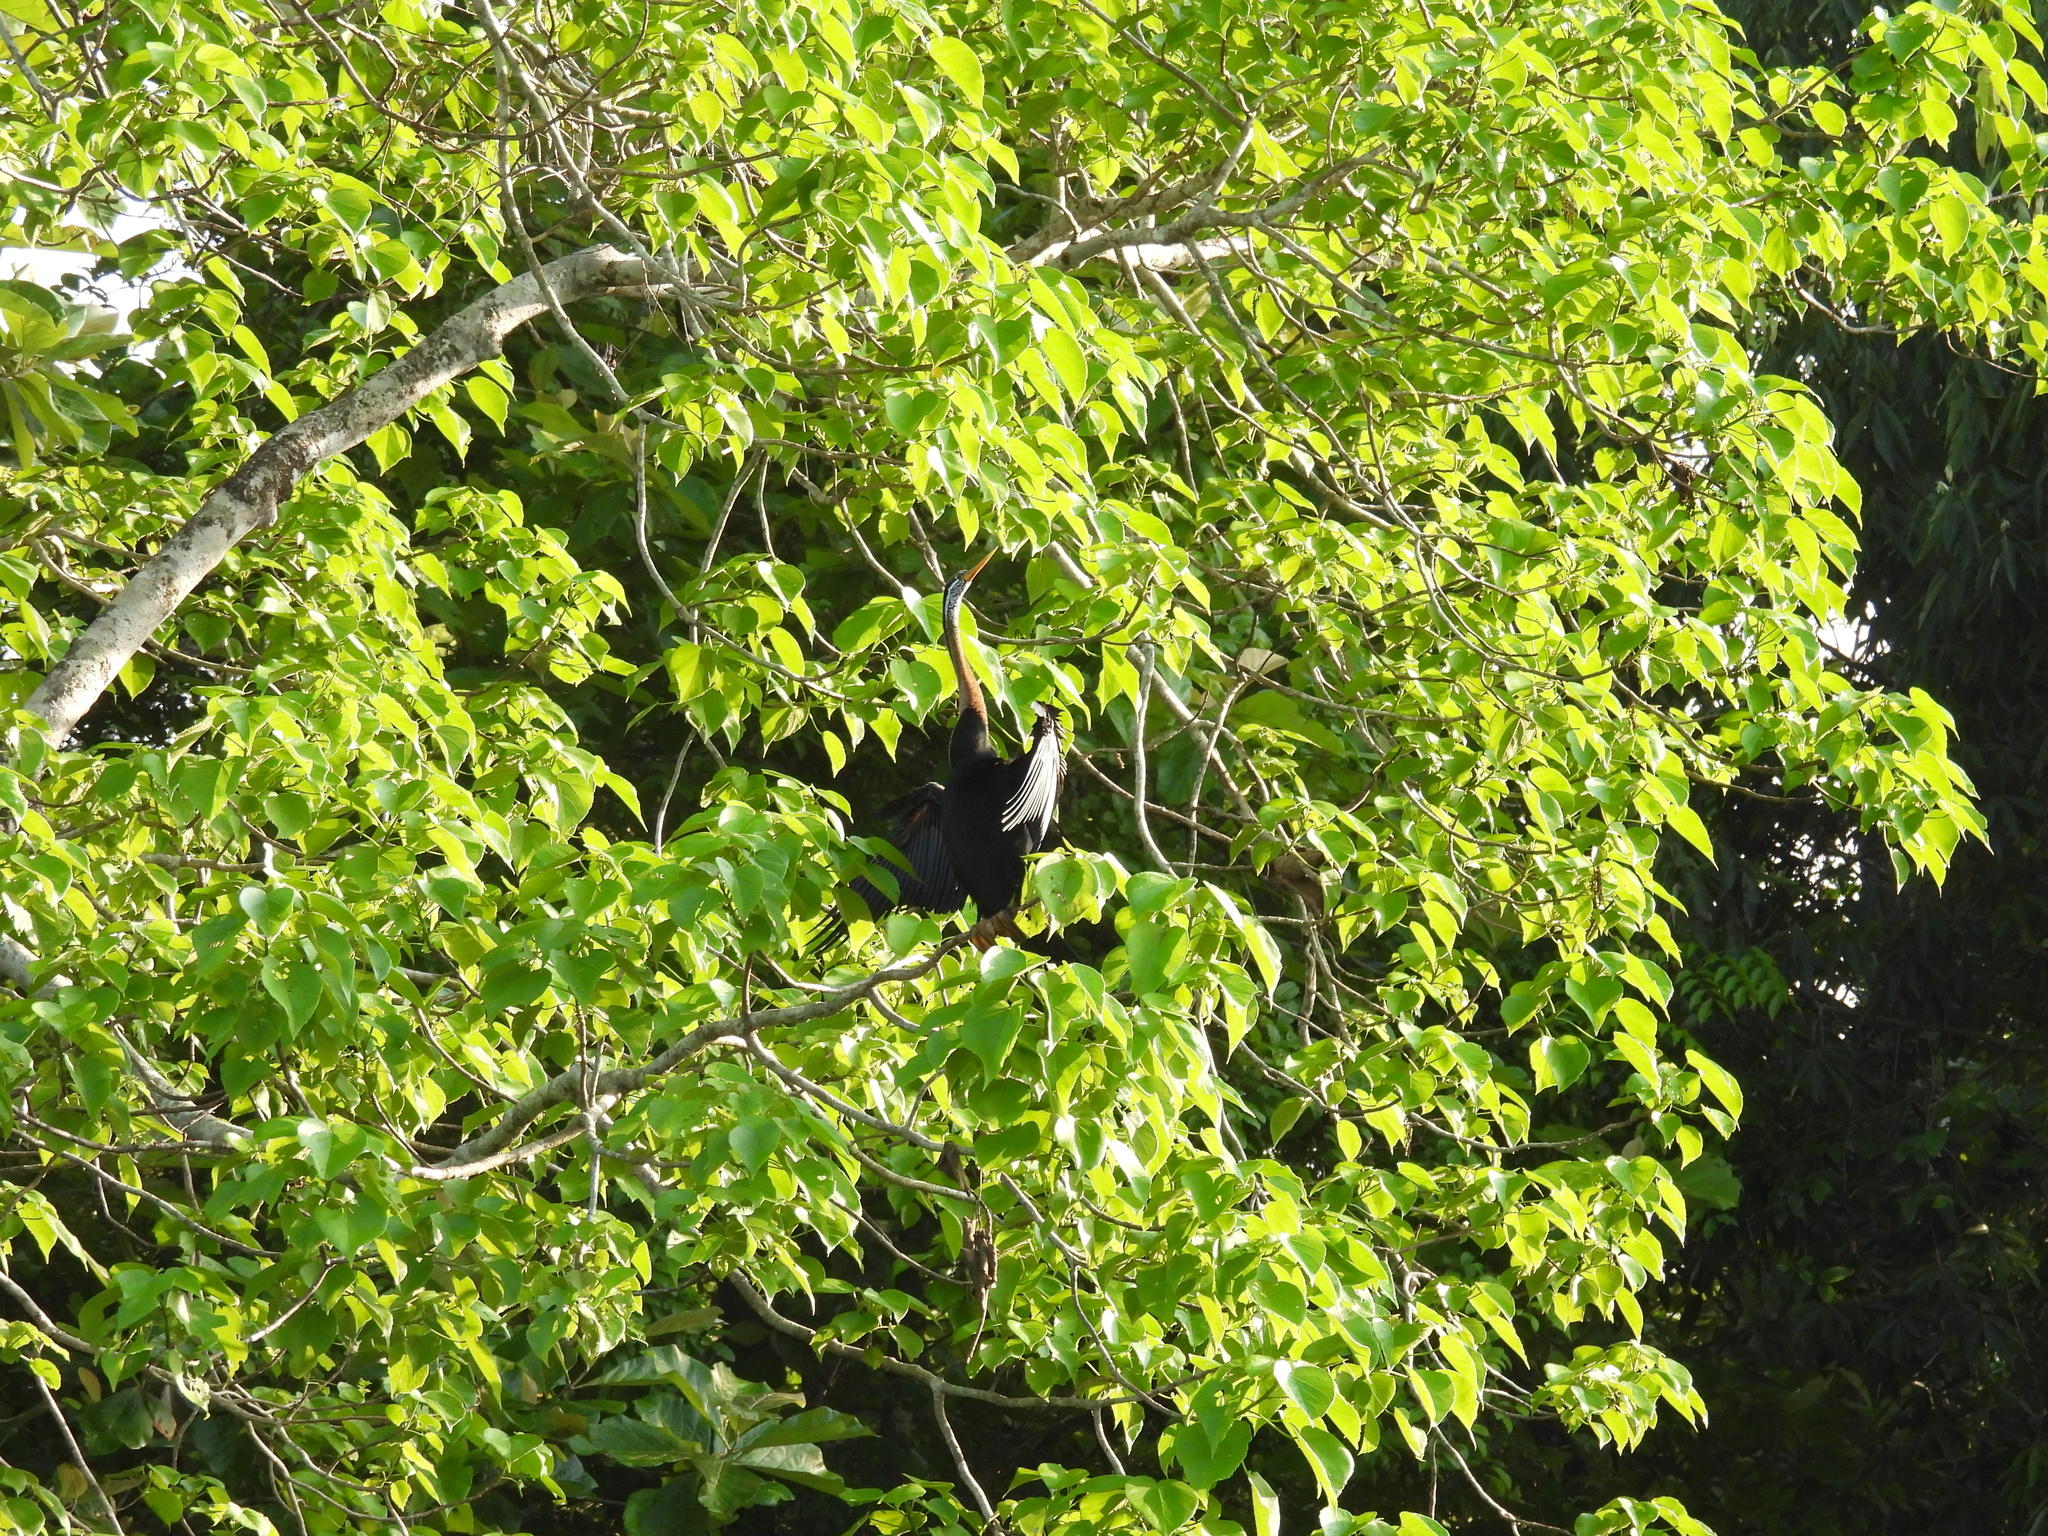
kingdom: Animalia
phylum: Chordata
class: Aves
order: Suliformes
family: Anhingidae
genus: Anhinga
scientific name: Anhinga melanogaster
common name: Oriental darter
